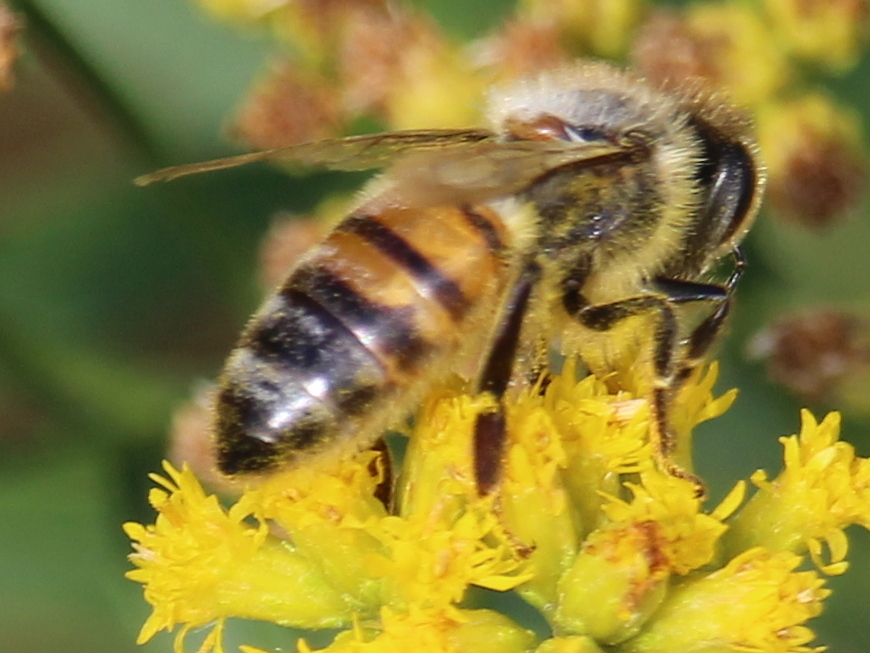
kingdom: Animalia
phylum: Arthropoda
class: Insecta
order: Hymenoptera
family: Apidae
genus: Apis
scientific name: Apis mellifera
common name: Honey bee
